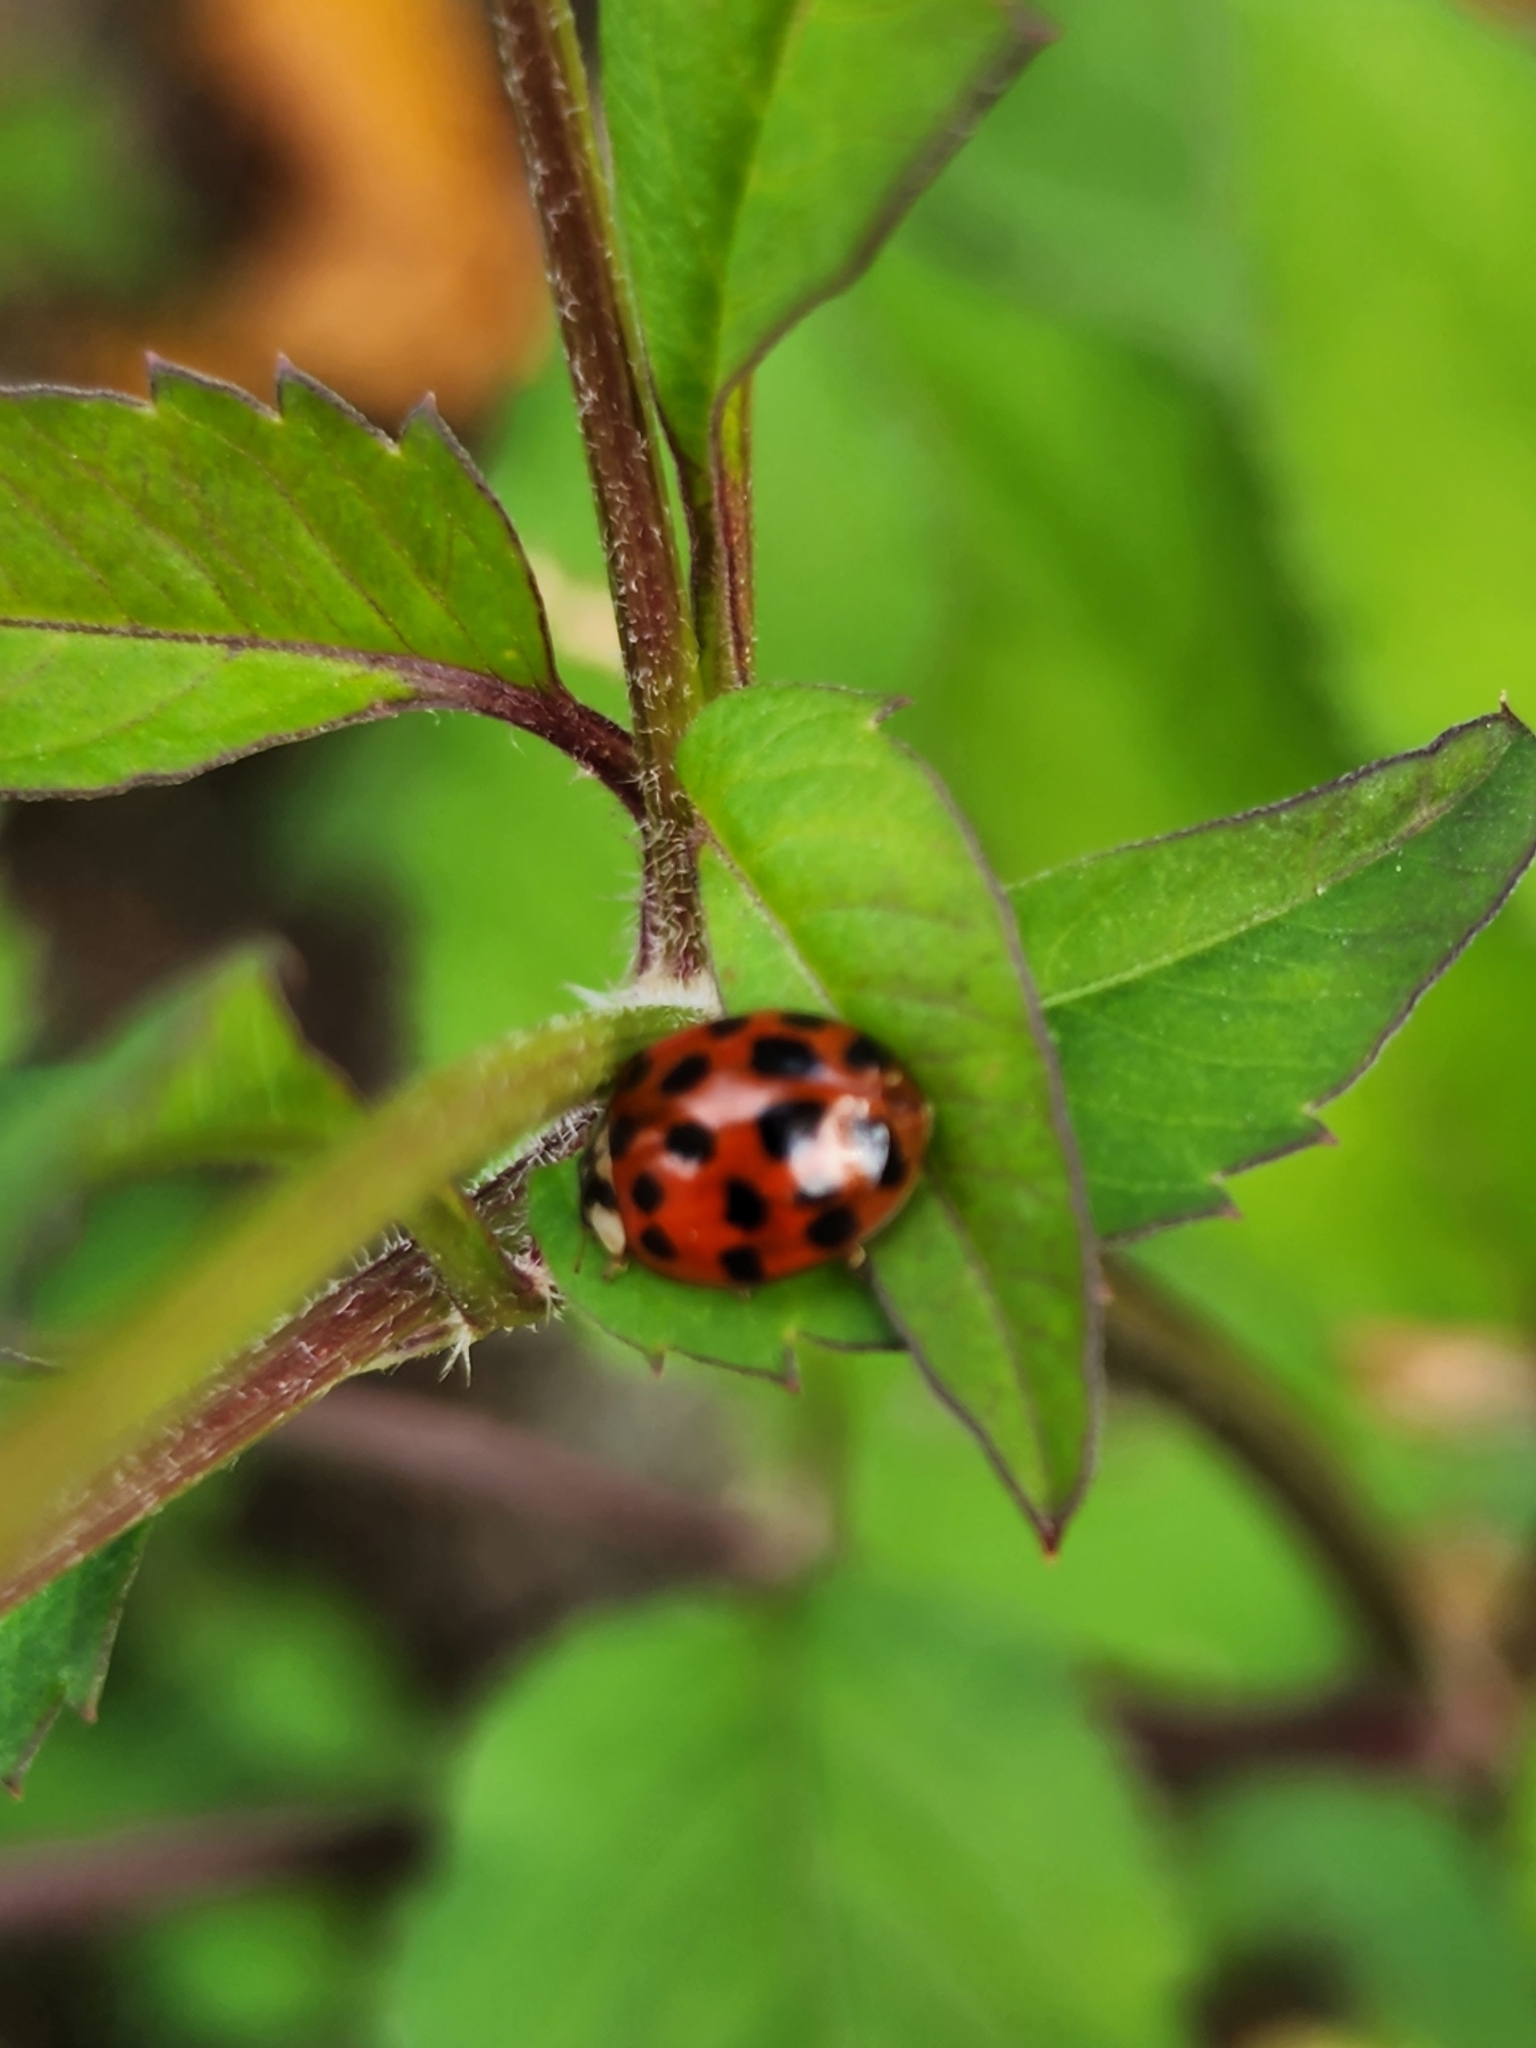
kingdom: Animalia
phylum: Arthropoda
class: Insecta
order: Coleoptera
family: Coccinellidae
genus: Harmonia
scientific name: Harmonia axyridis
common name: Harlequin ladybird
